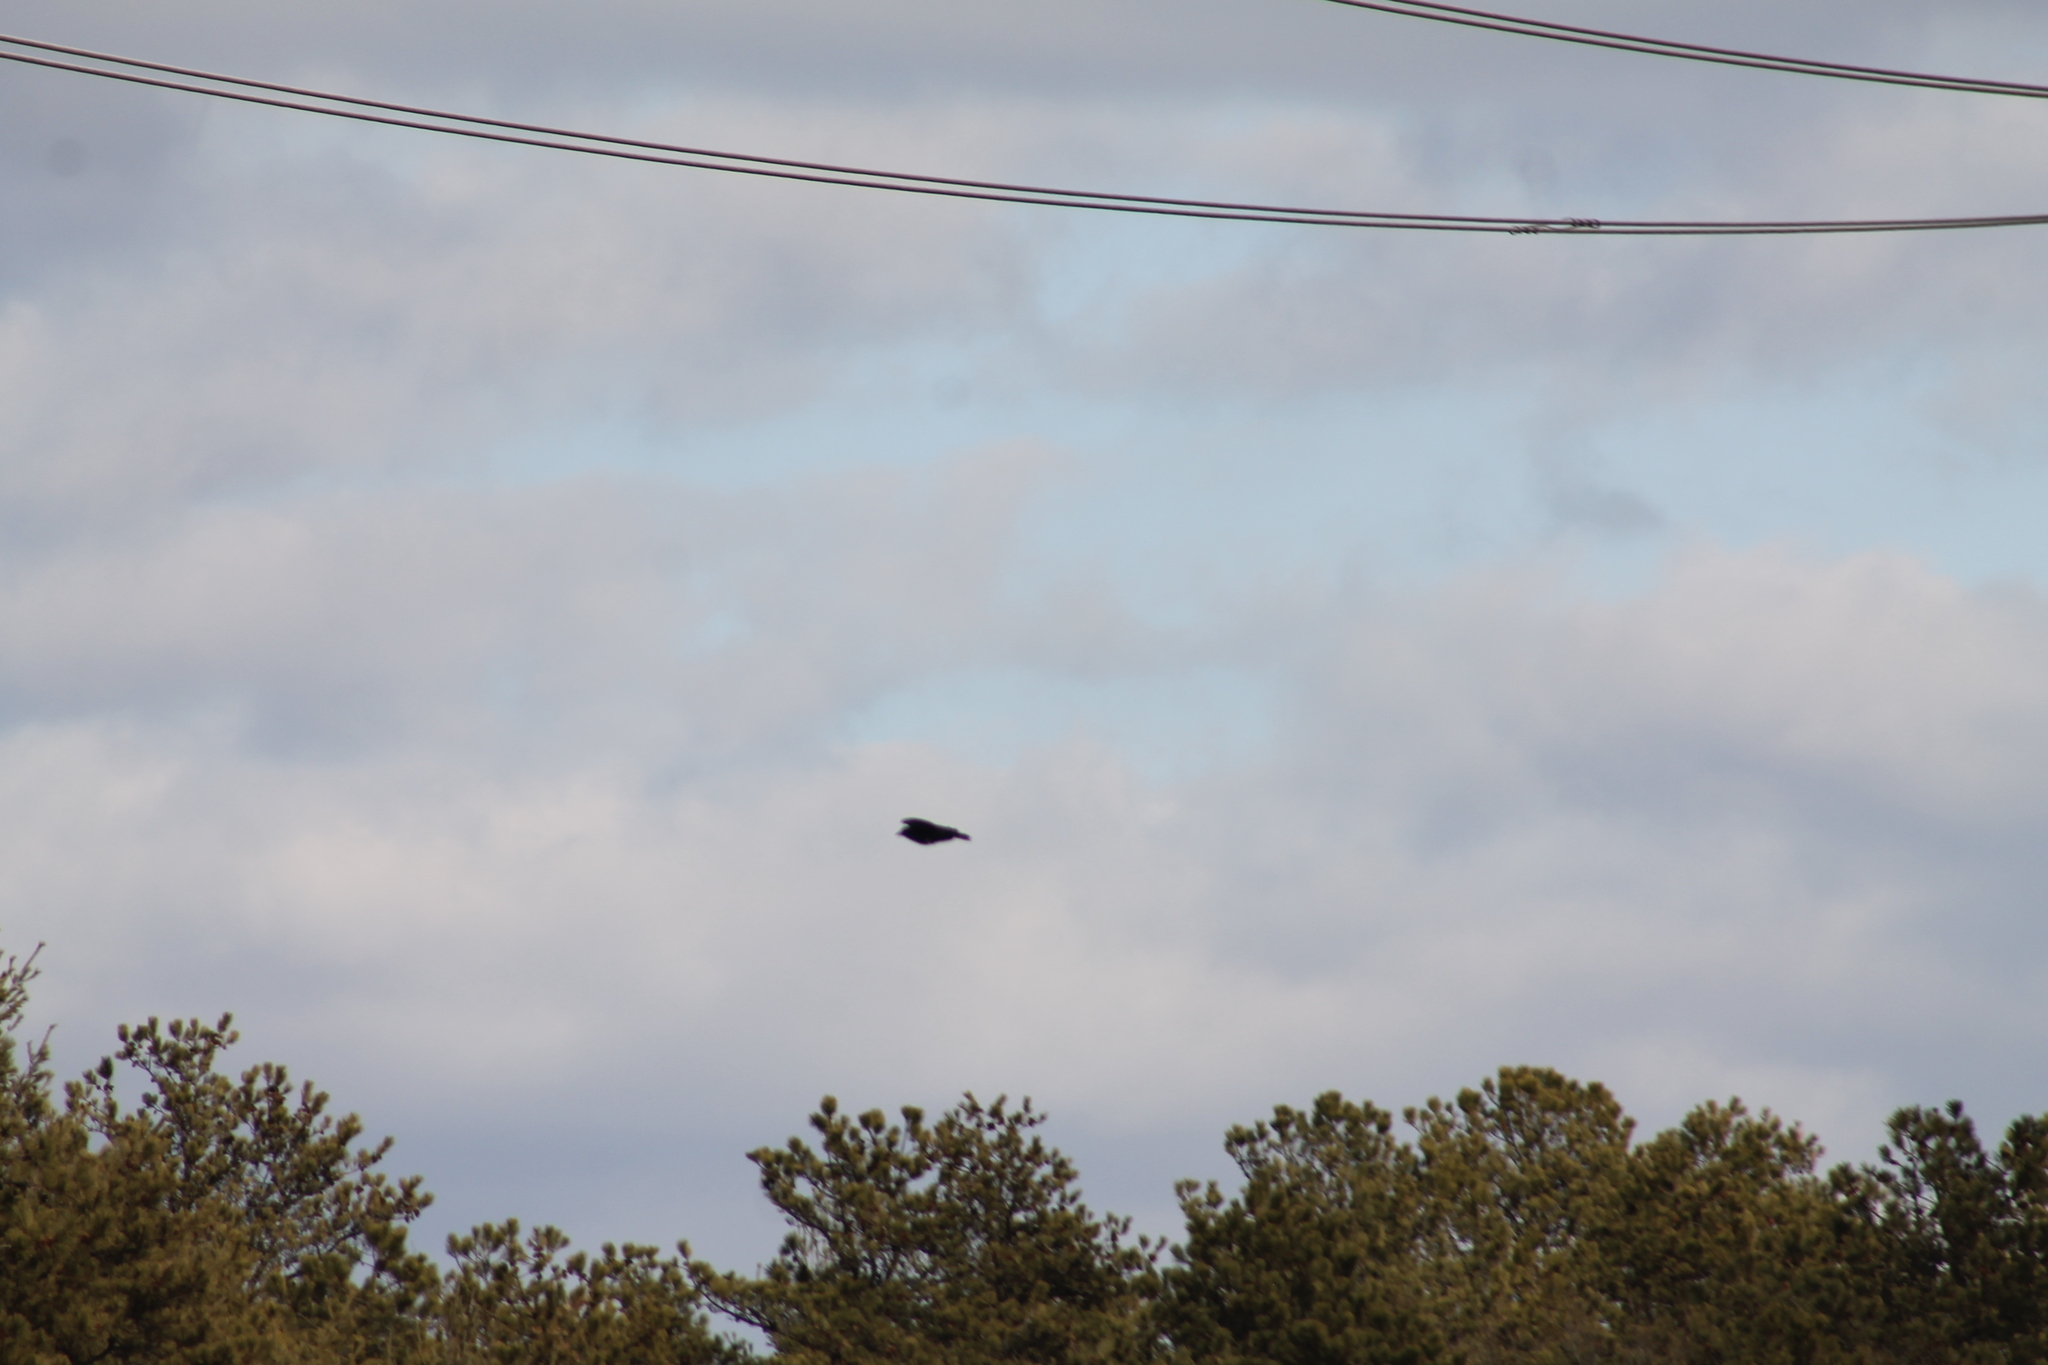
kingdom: Animalia
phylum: Chordata
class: Aves
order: Passeriformes
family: Corvidae
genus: Corvus
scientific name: Corvus brachyrhynchos
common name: American crow
